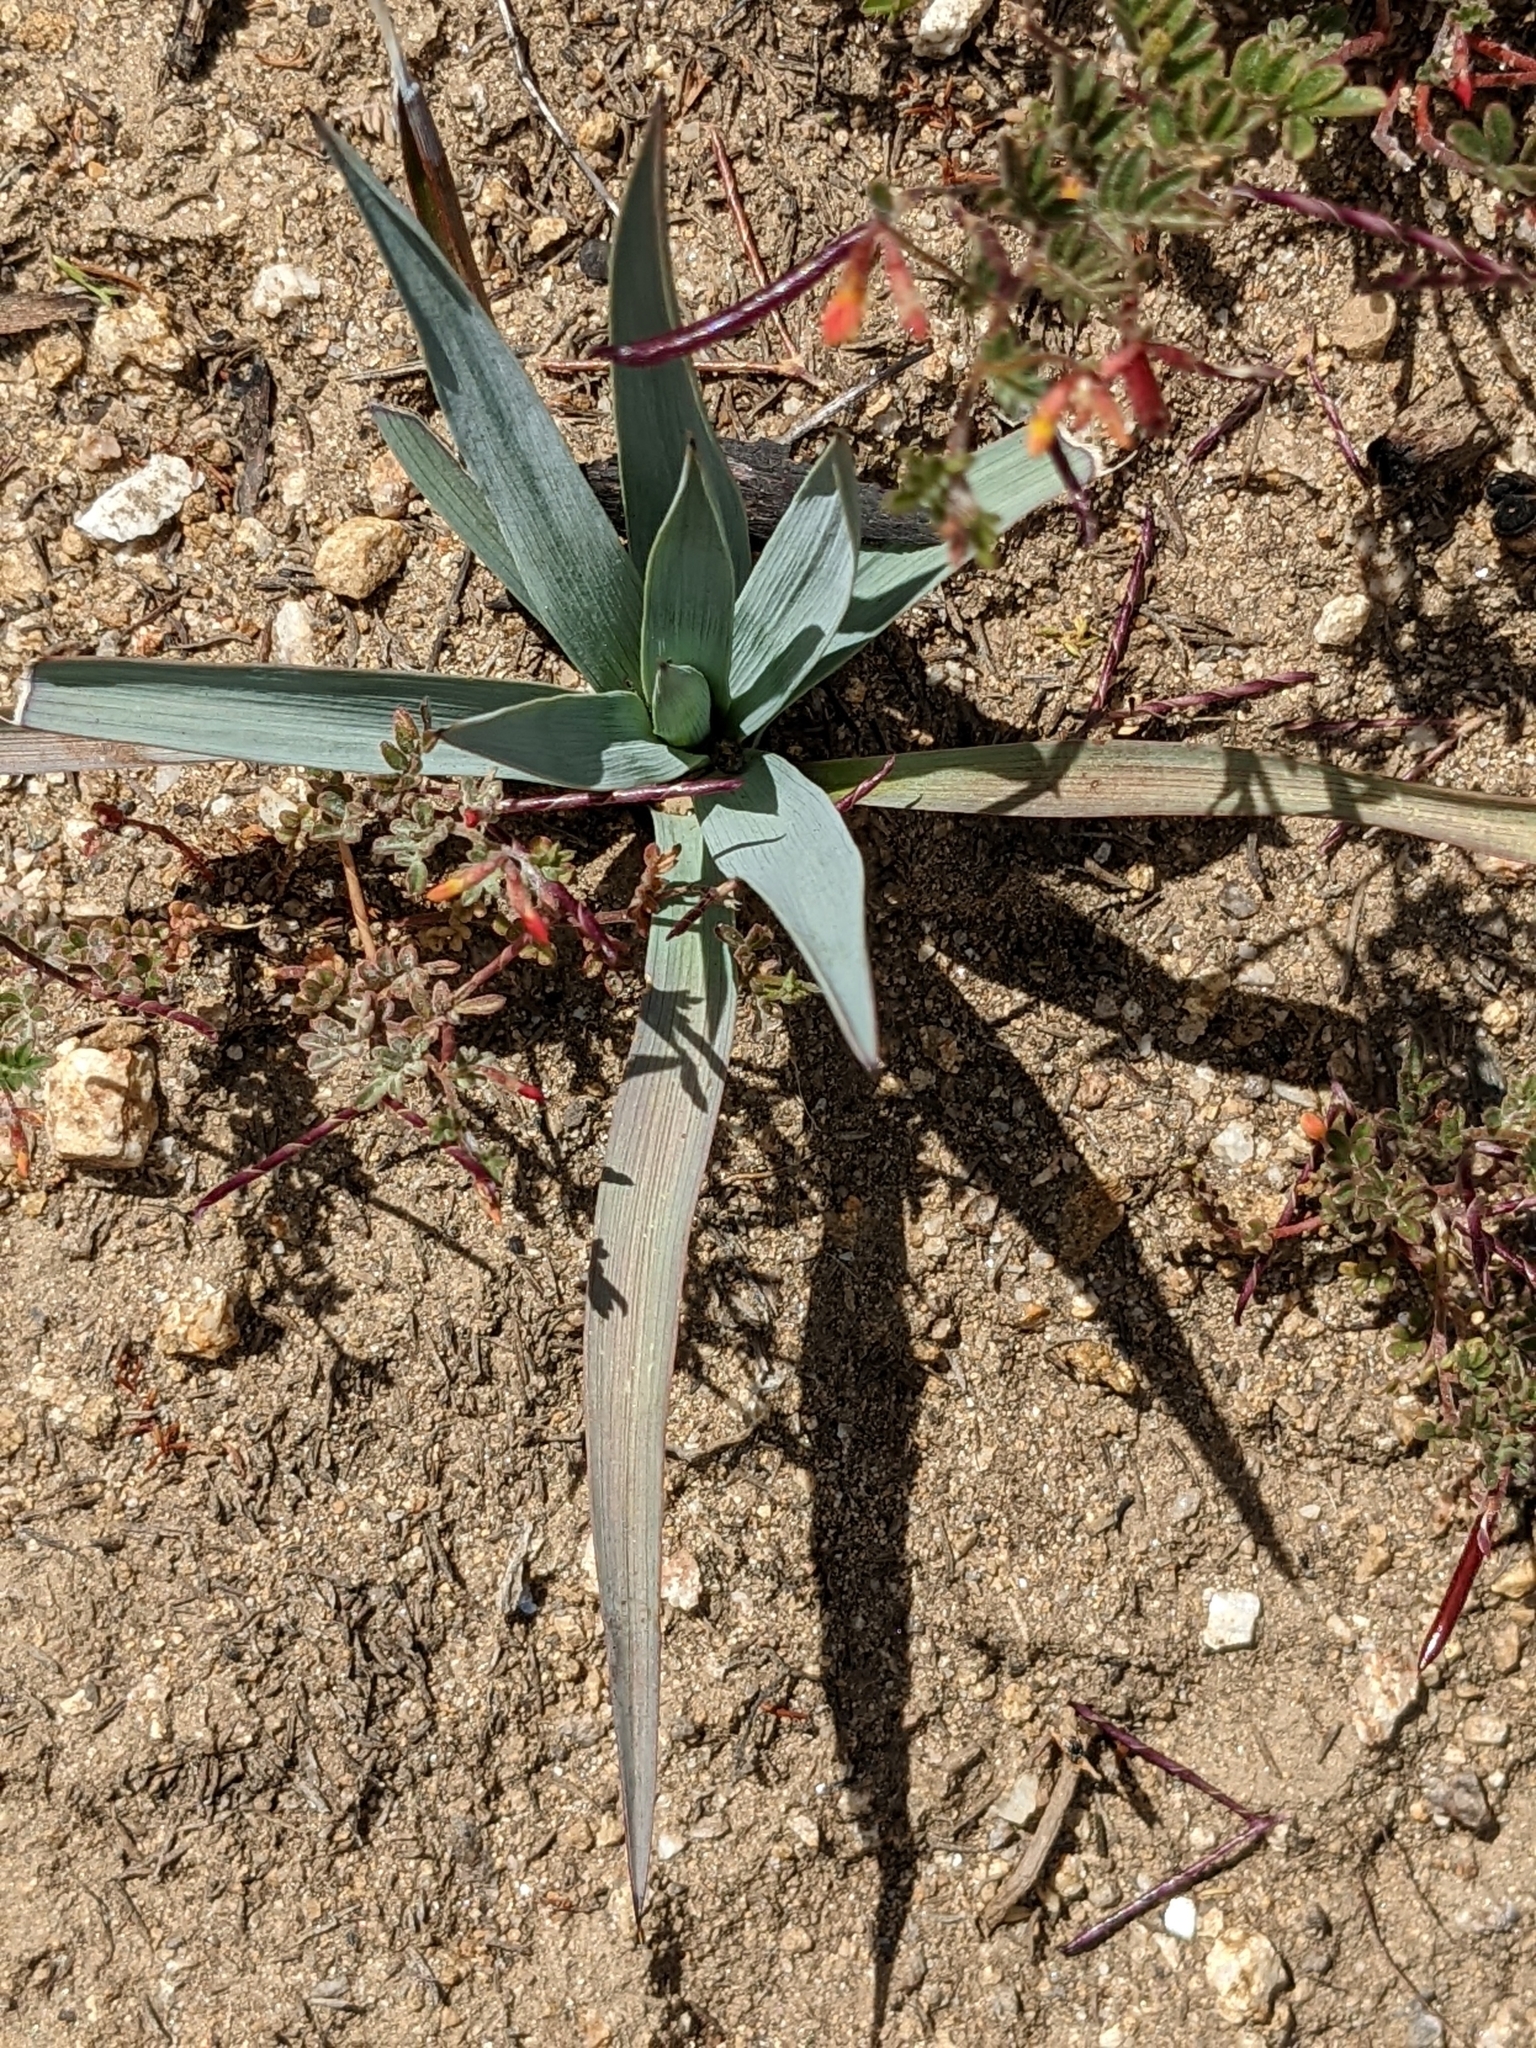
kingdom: Plantae
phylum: Tracheophyta
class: Liliopsida
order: Asparagales
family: Asparagaceae
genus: Hesperoyucca
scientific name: Hesperoyucca whipplei
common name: Our lord's-candle
